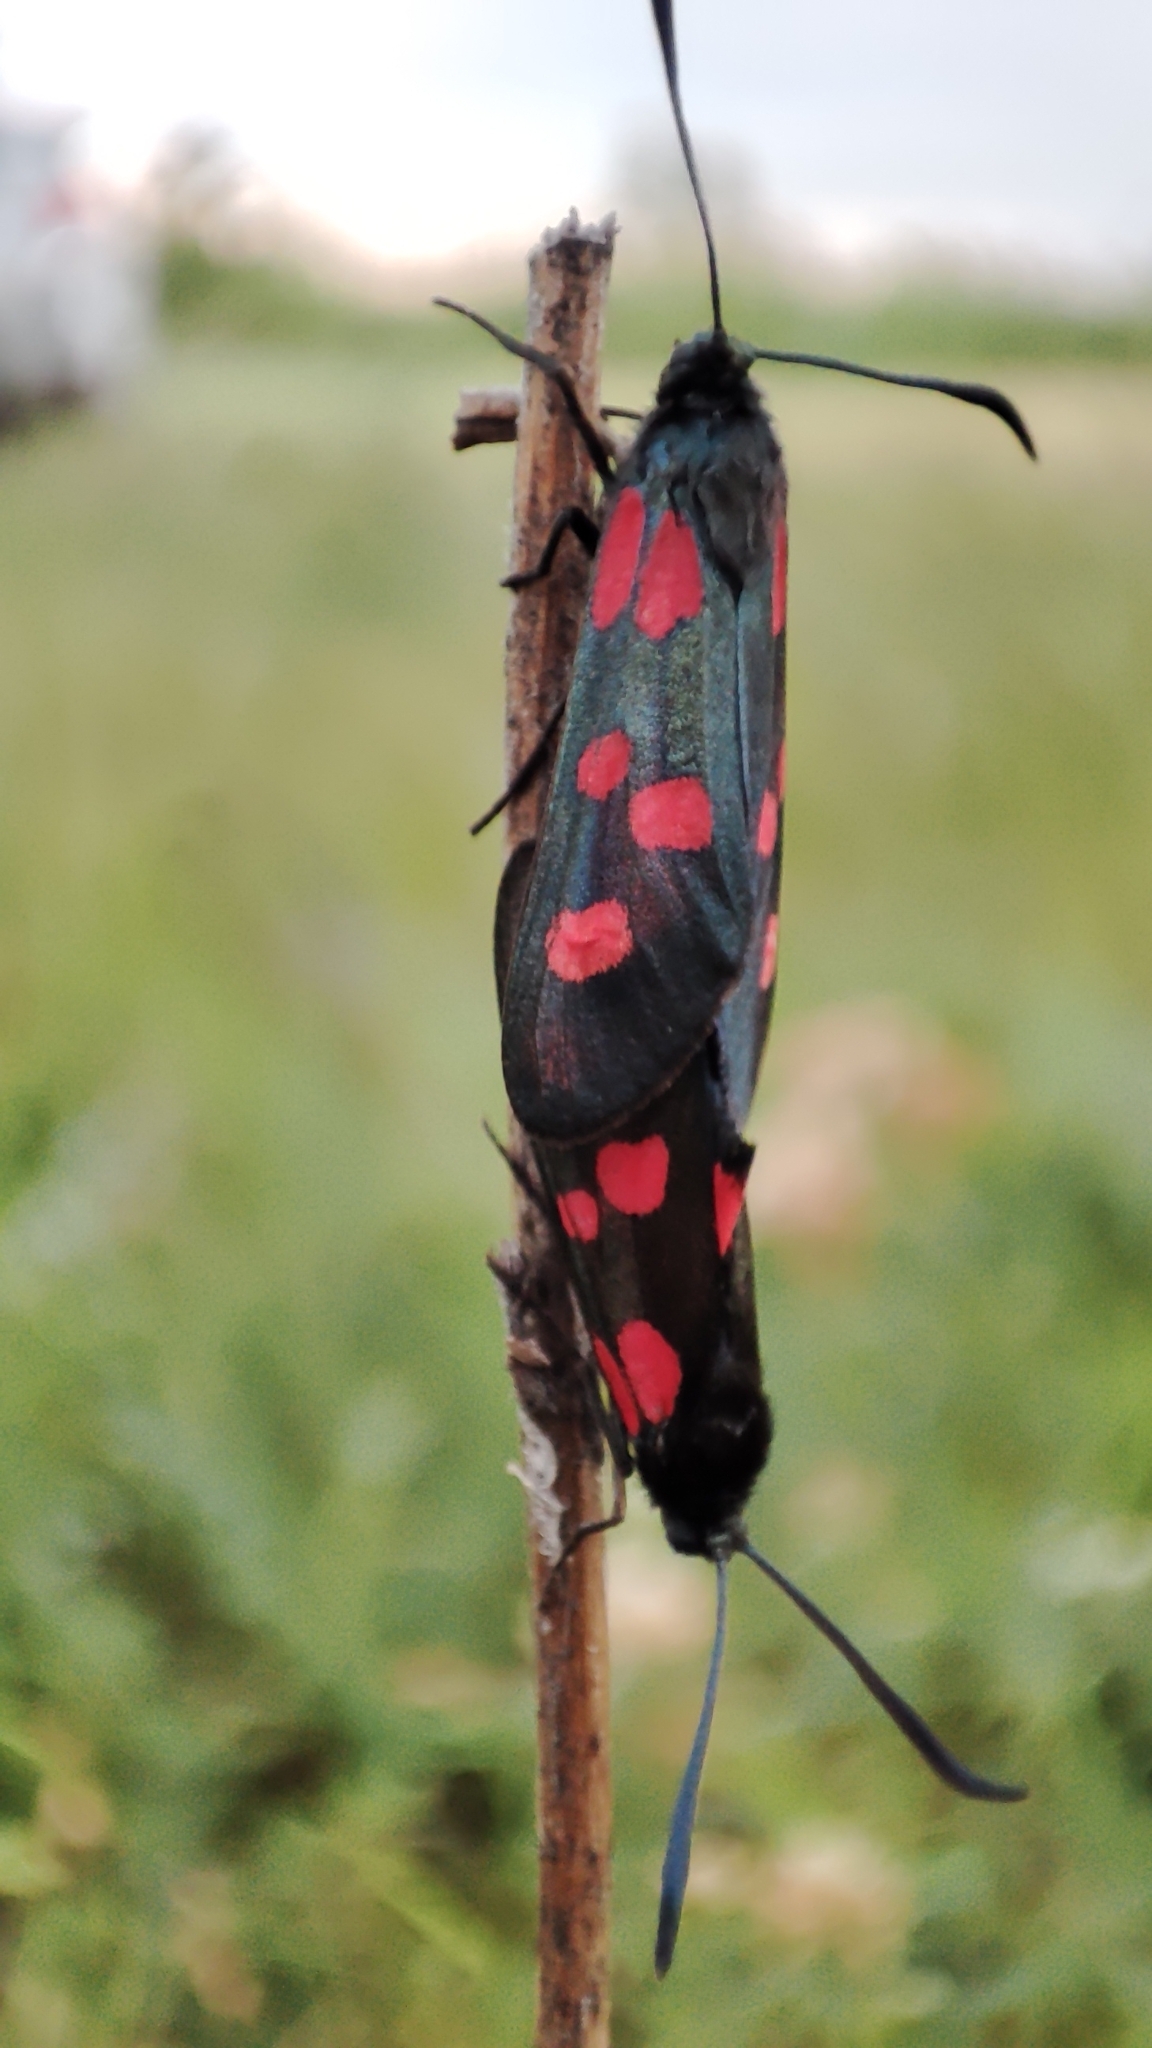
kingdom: Animalia
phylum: Arthropoda
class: Insecta
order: Lepidoptera
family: Zygaenidae
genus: Zygaena
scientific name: Zygaena lonicerae
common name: Narrow-bordered five-spot burnet
